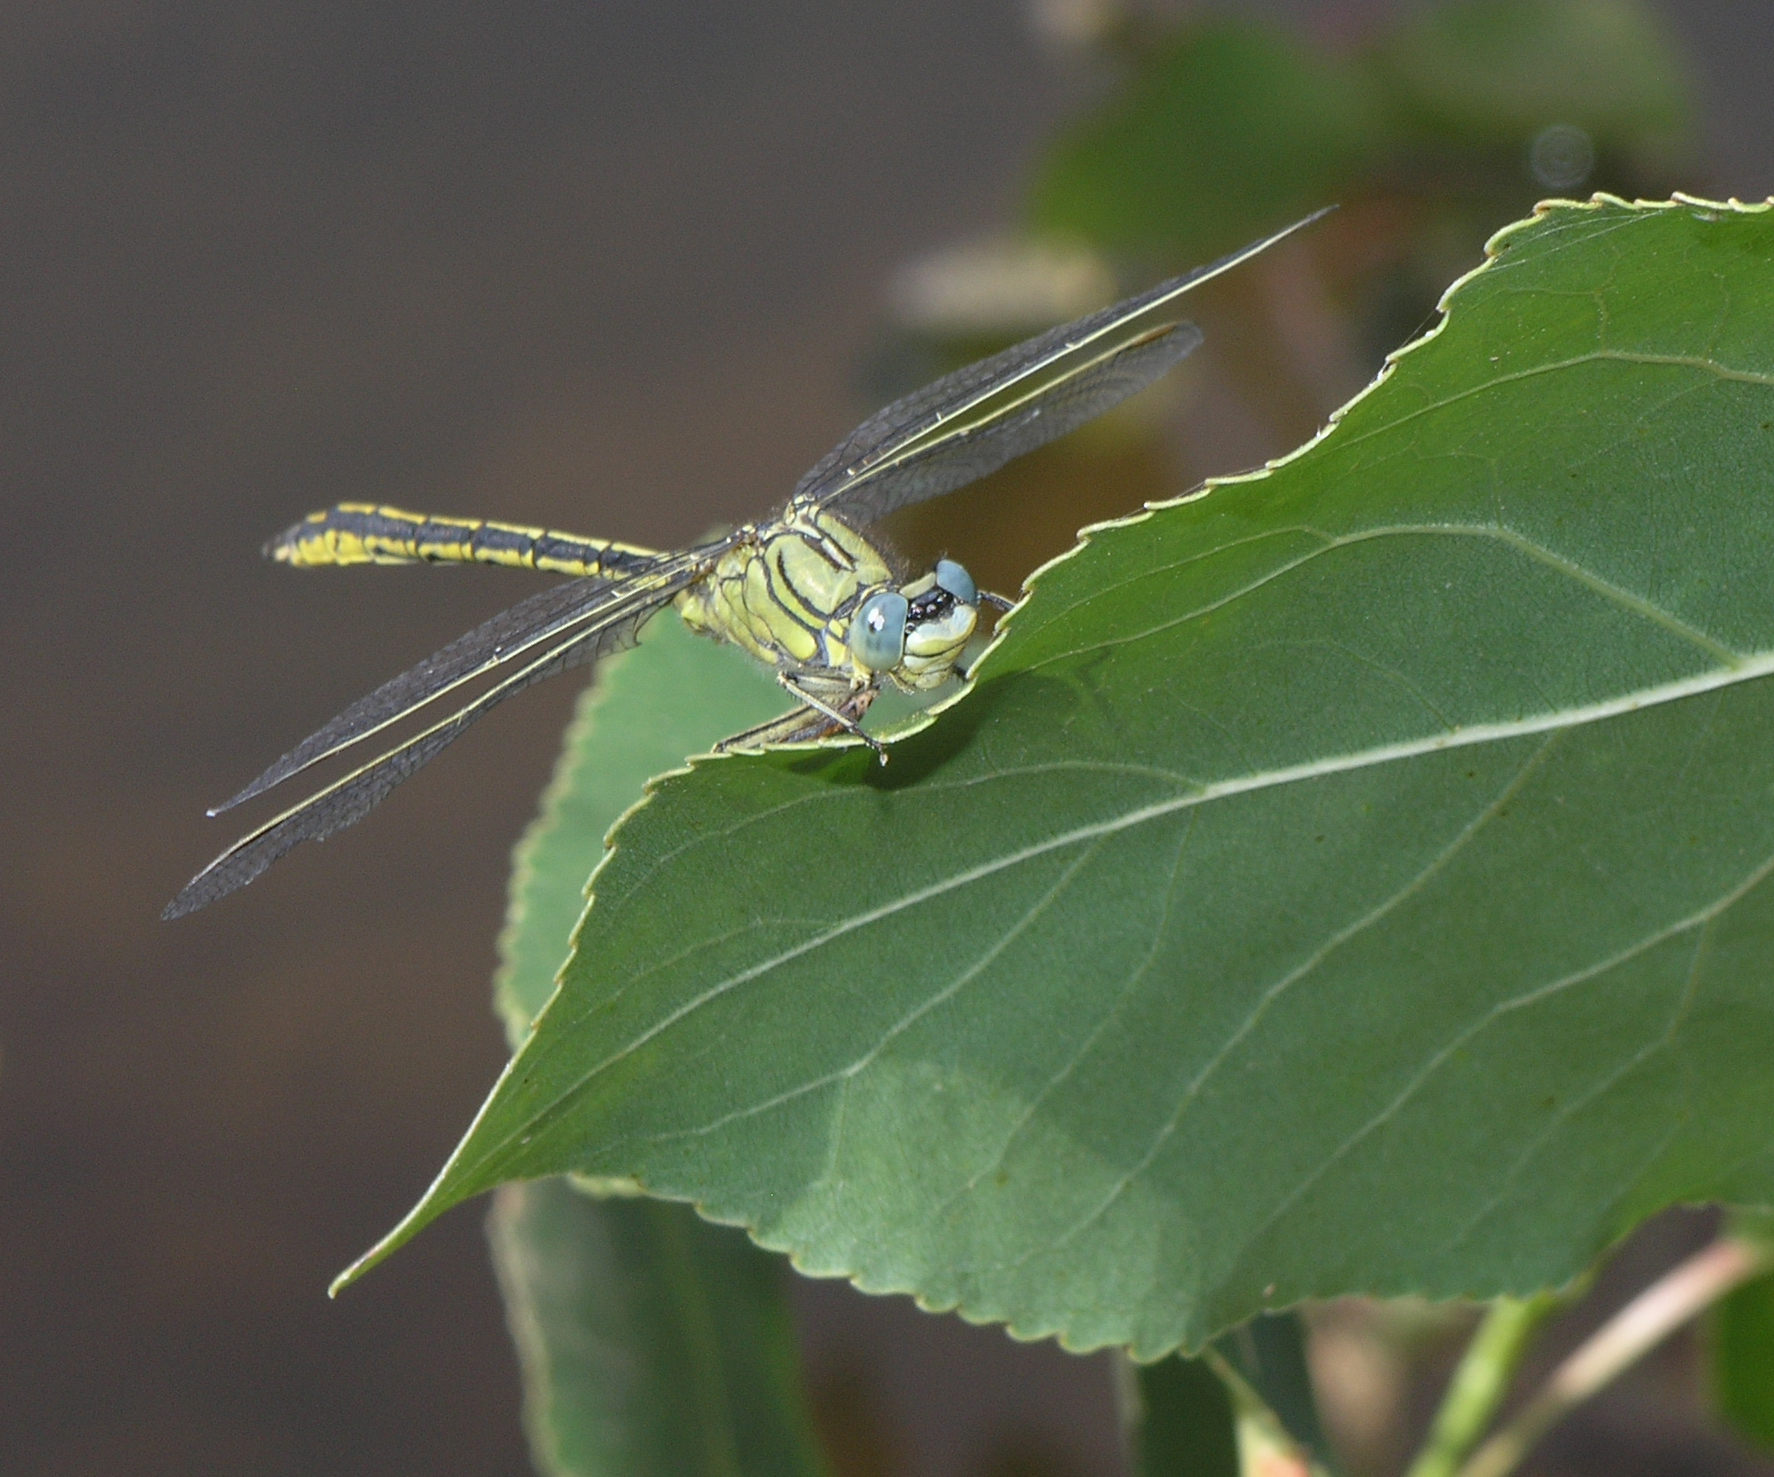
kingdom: Animalia
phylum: Arthropoda
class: Insecta
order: Odonata
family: Gomphidae
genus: Gomphus
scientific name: Gomphus pulchellus
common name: Western clubtail
